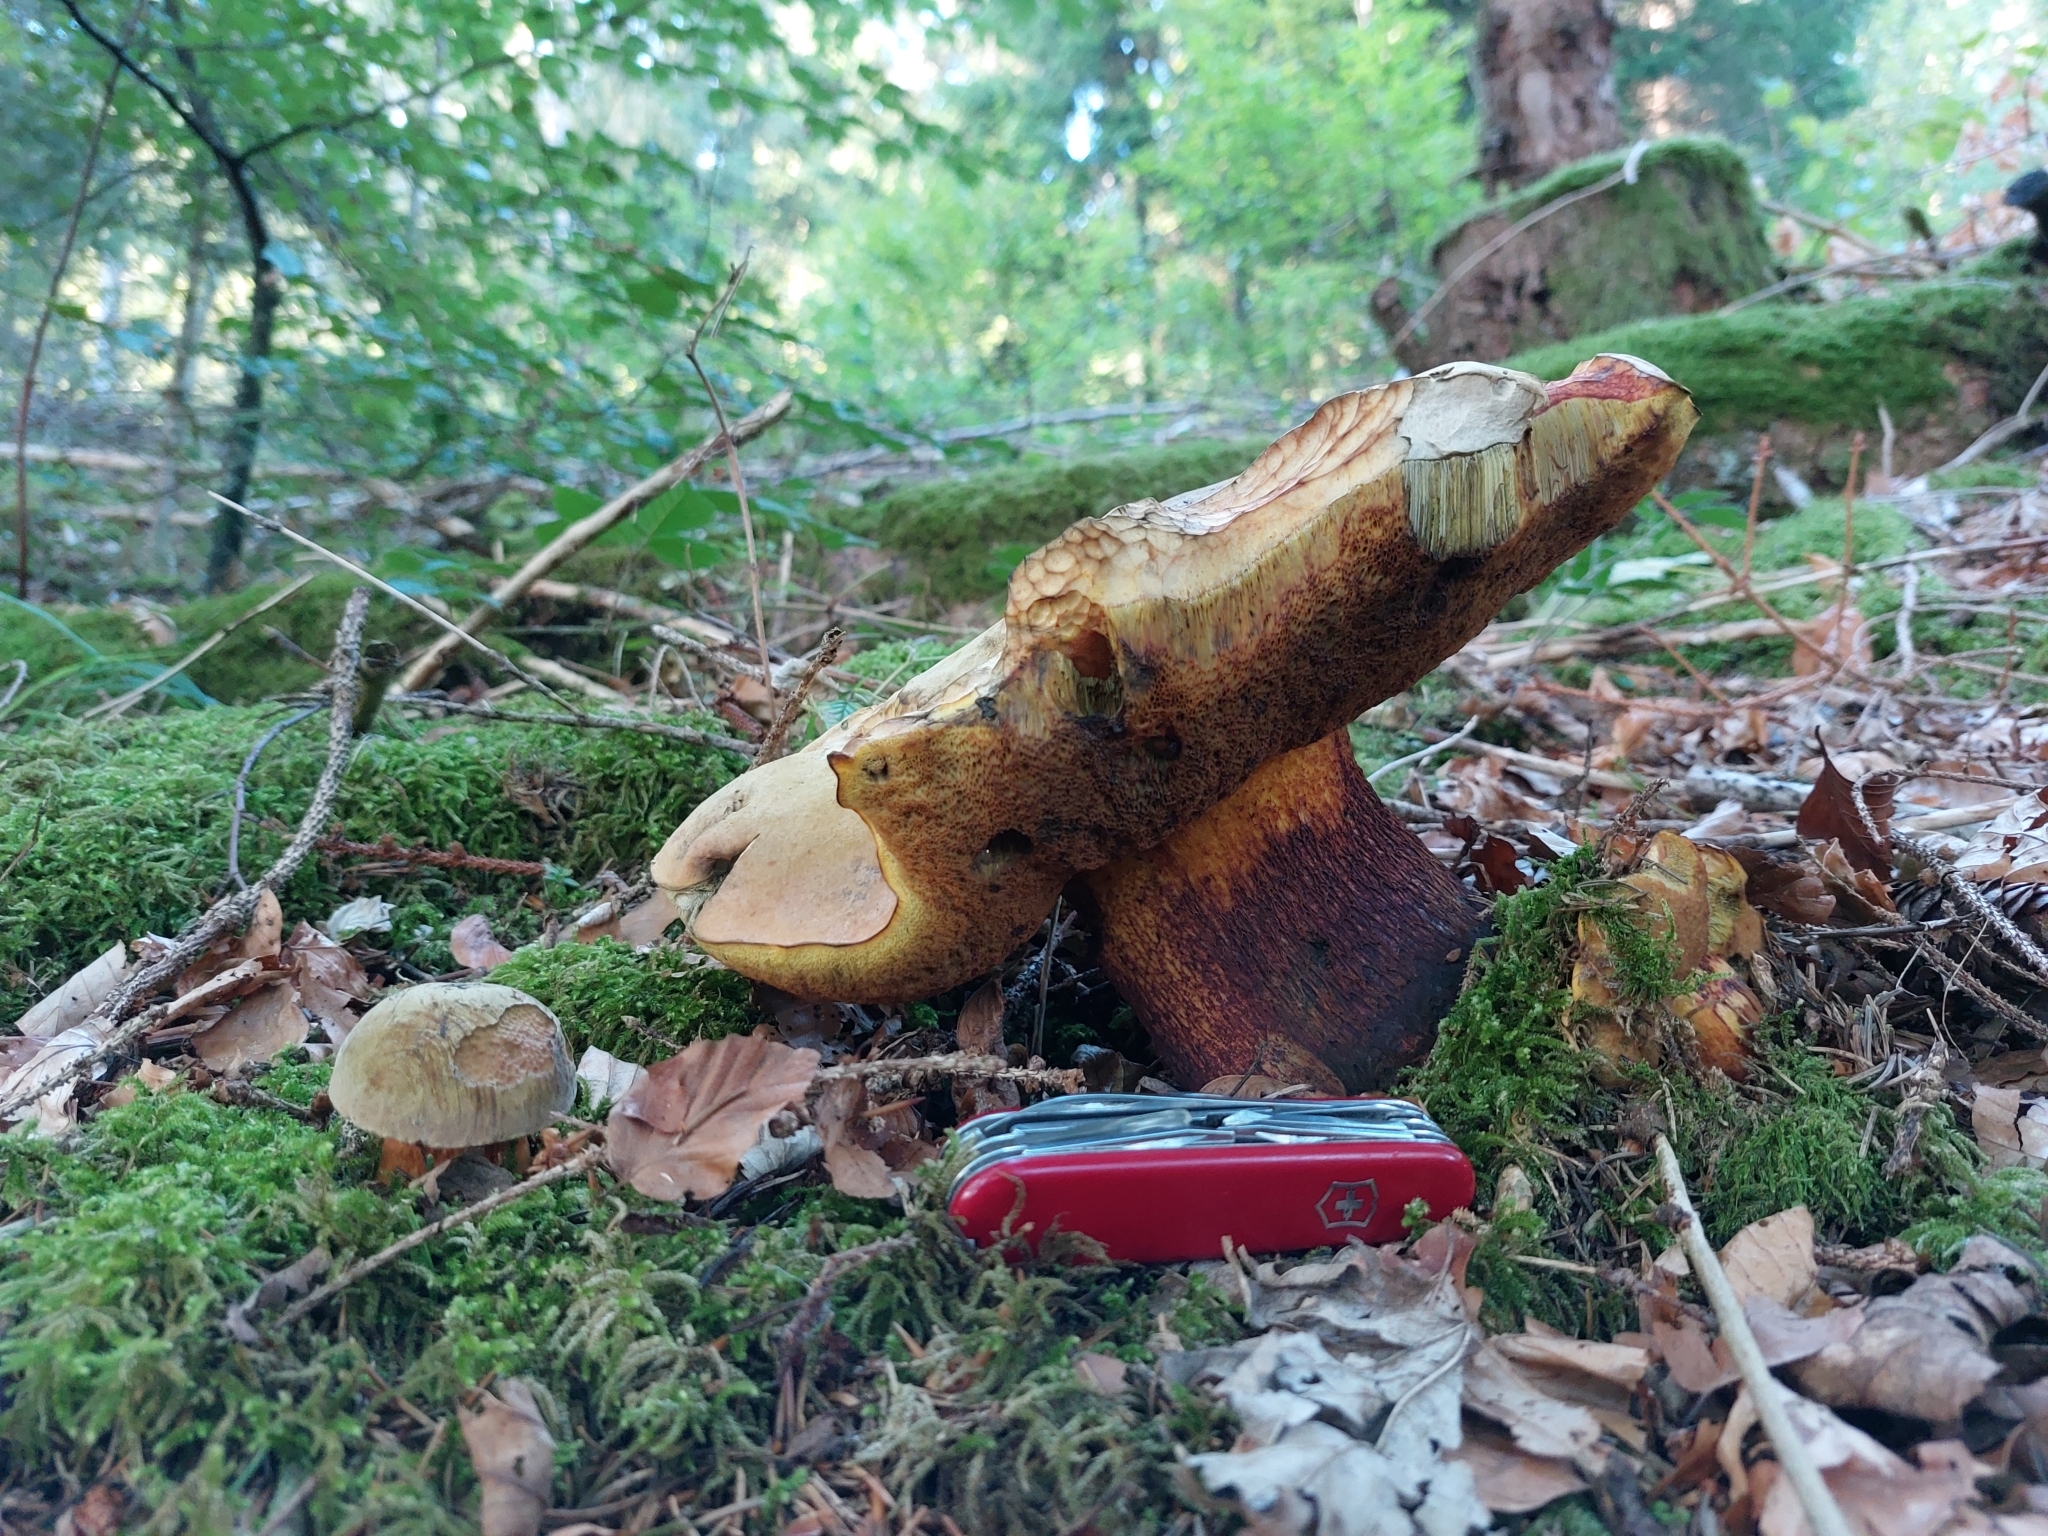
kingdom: Fungi
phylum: Basidiomycota
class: Agaricomycetes
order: Boletales
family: Boletaceae
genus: Suillellus
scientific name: Suillellus luridus
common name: Lurid bolete
